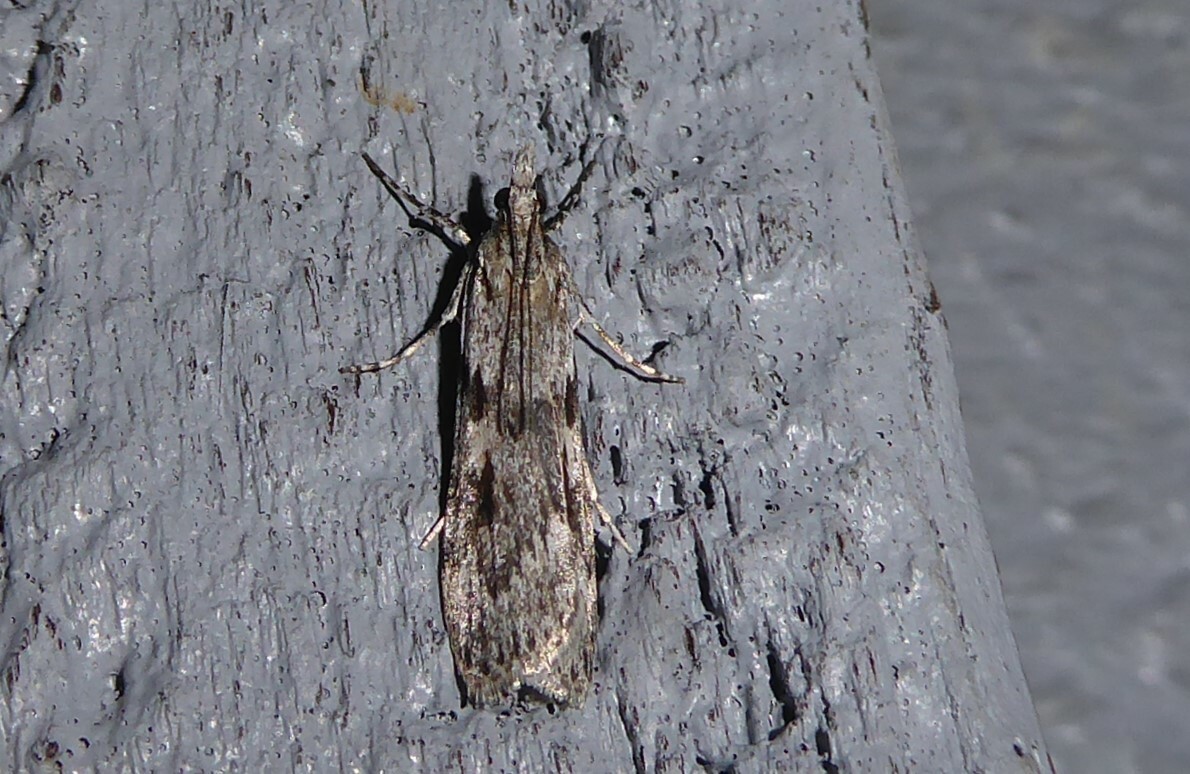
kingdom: Animalia
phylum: Arthropoda
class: Insecta
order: Lepidoptera
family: Crambidae
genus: Scoparia
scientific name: Scoparia halopis
